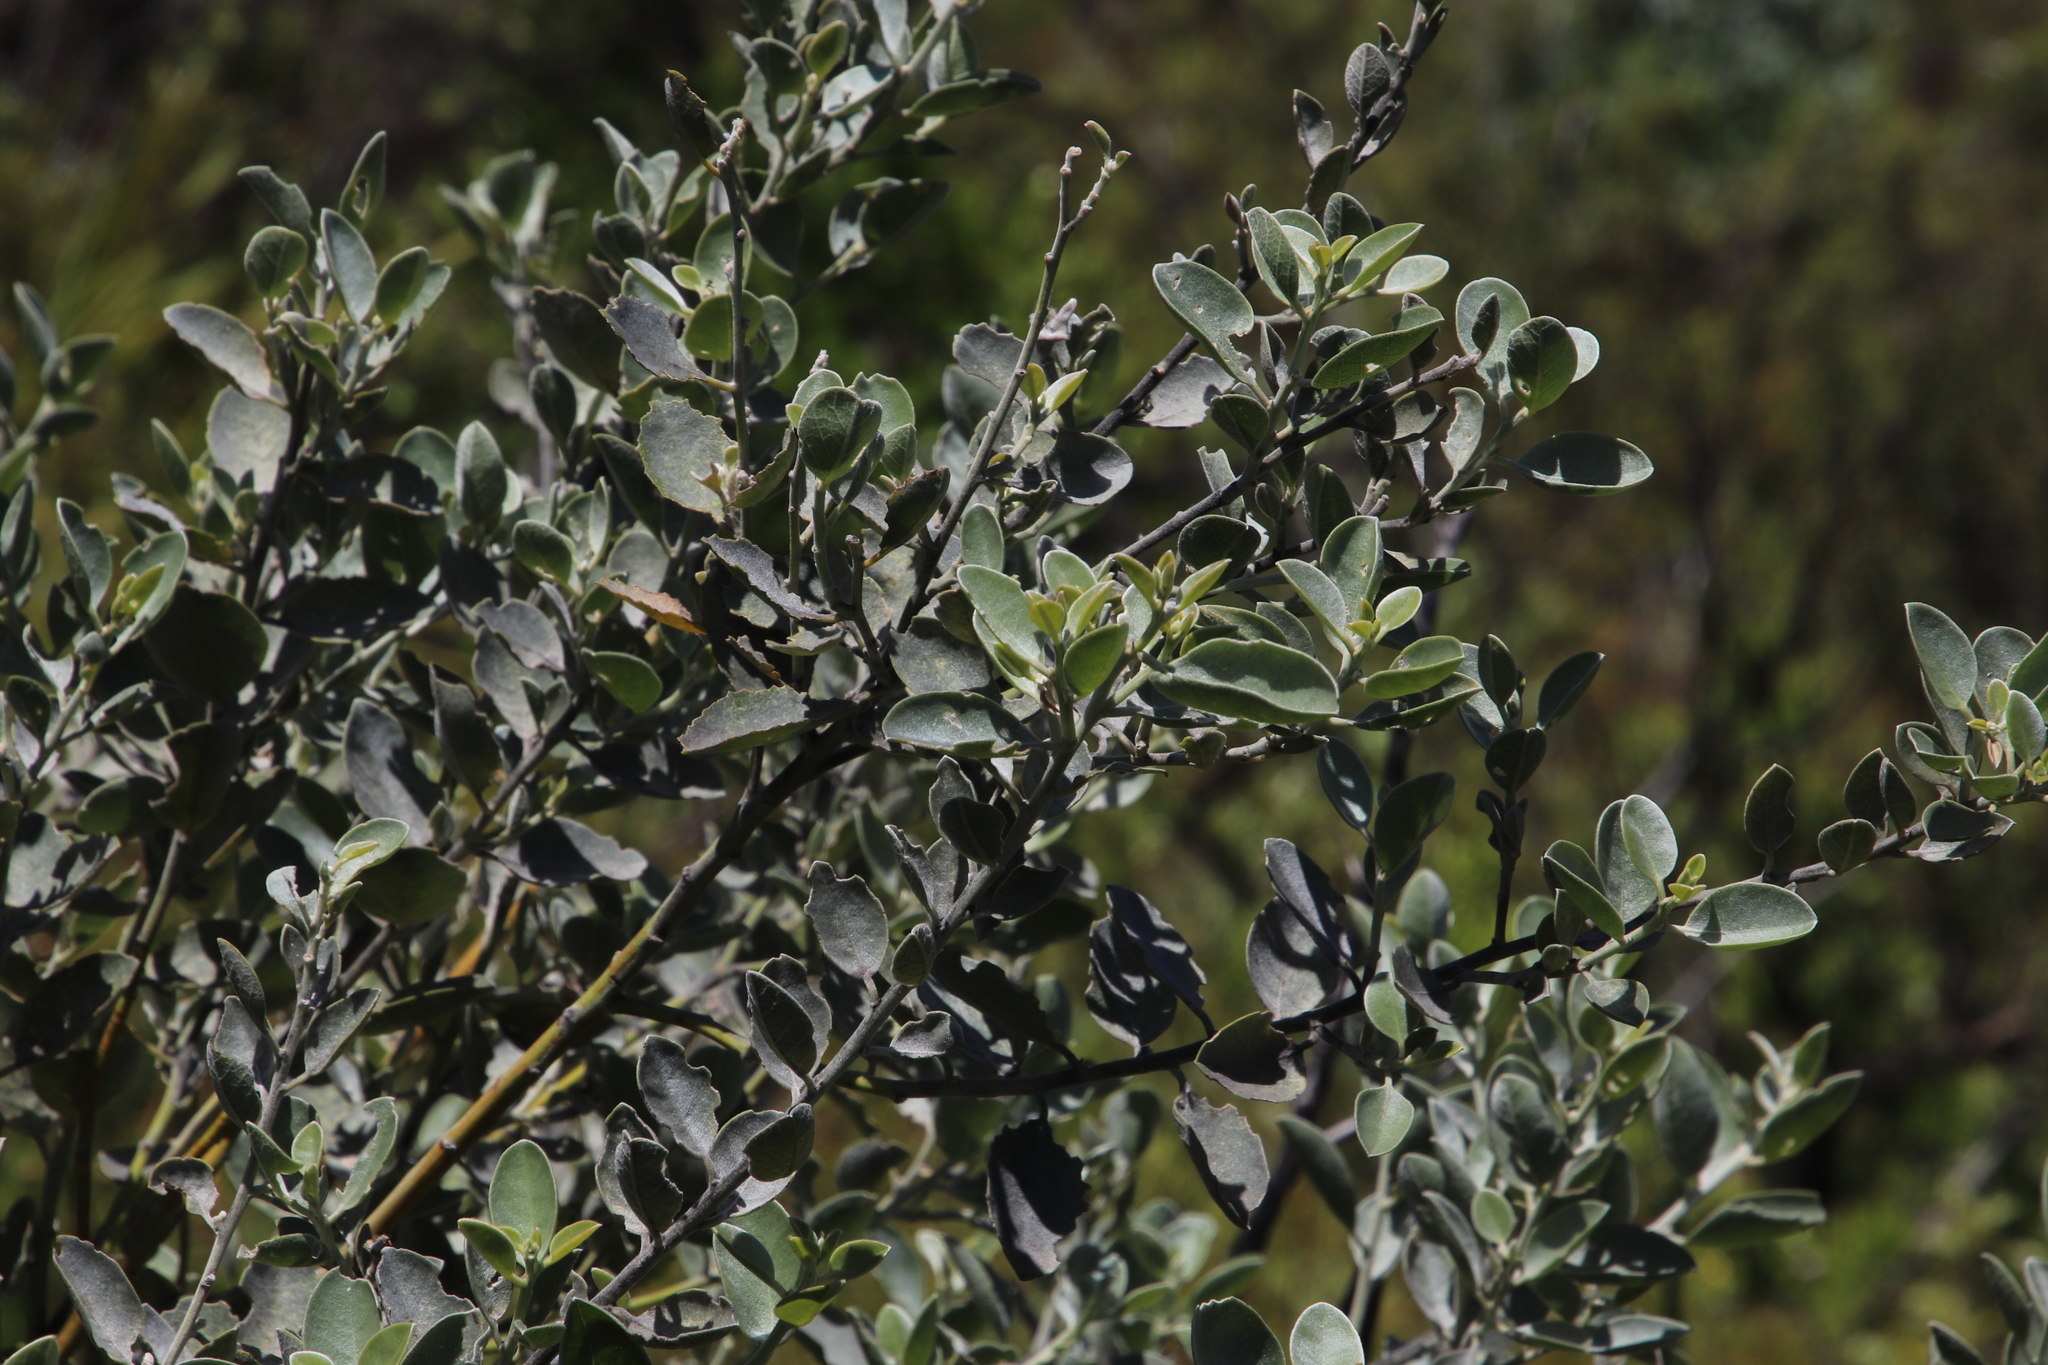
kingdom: Plantae
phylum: Tracheophyta
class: Magnoliopsida
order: Fabales
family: Fabaceae
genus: Podalyria
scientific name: Podalyria amoena
